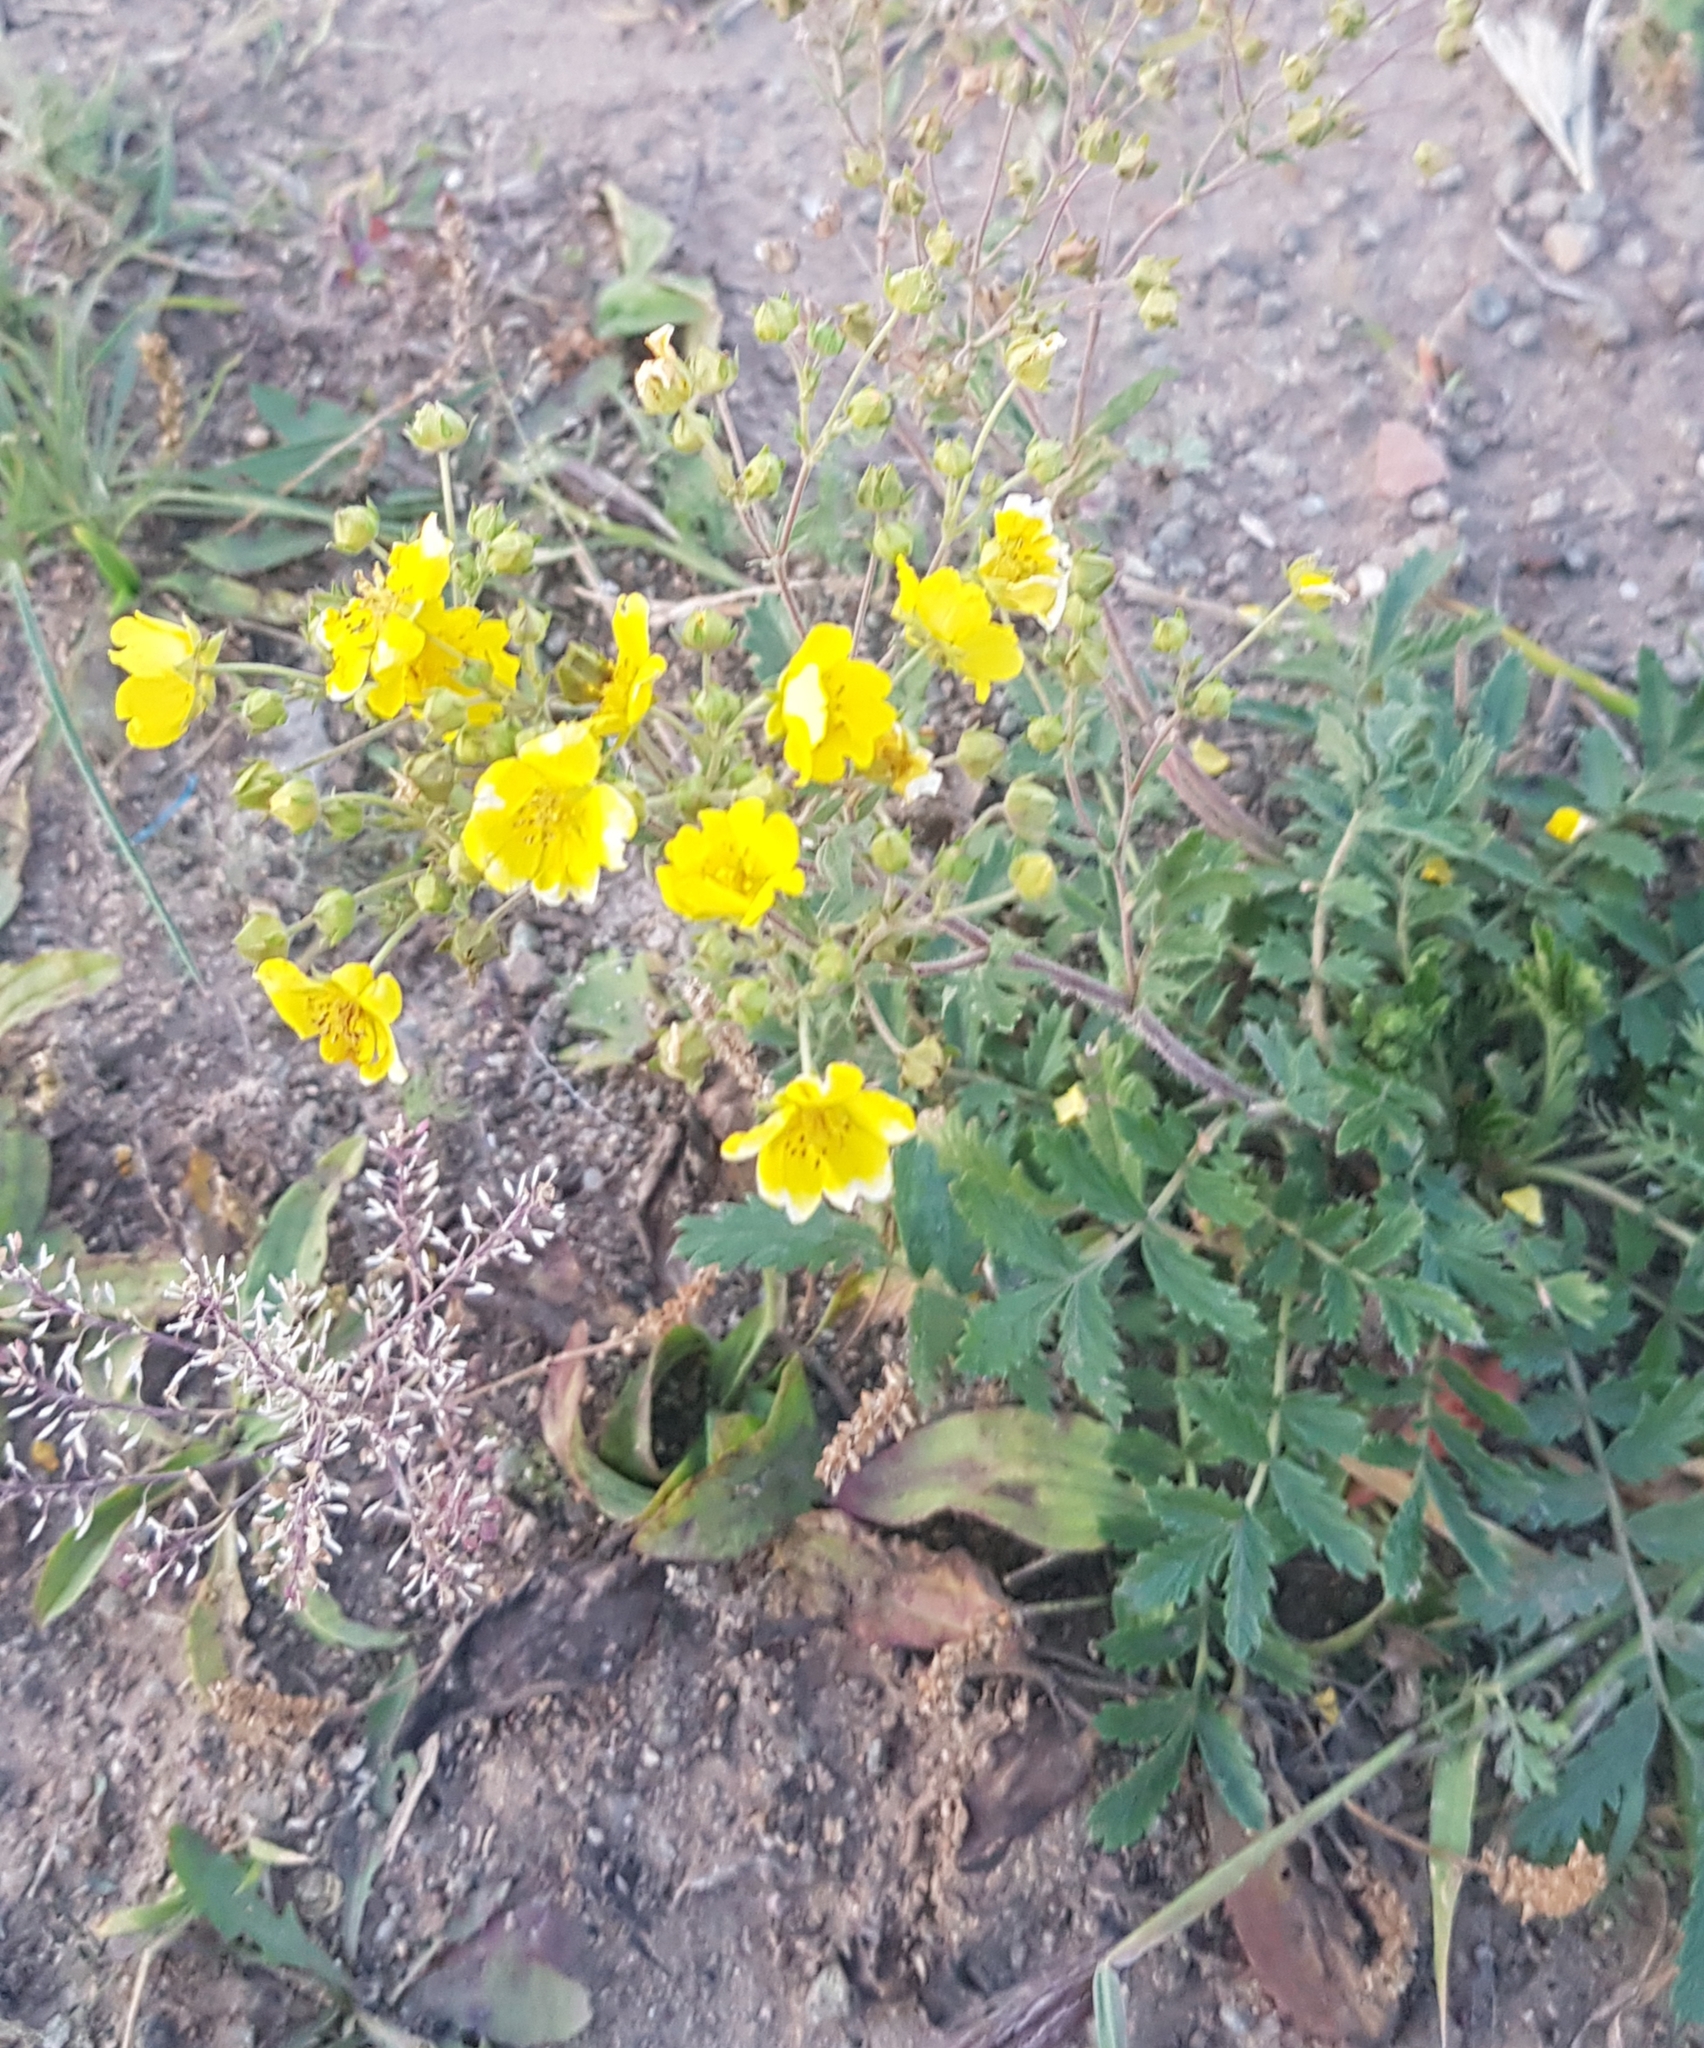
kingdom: Plantae
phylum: Tracheophyta
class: Magnoliopsida
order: Rosales
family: Rosaceae
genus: Potentilla
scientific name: Potentilla tanacetifolia
